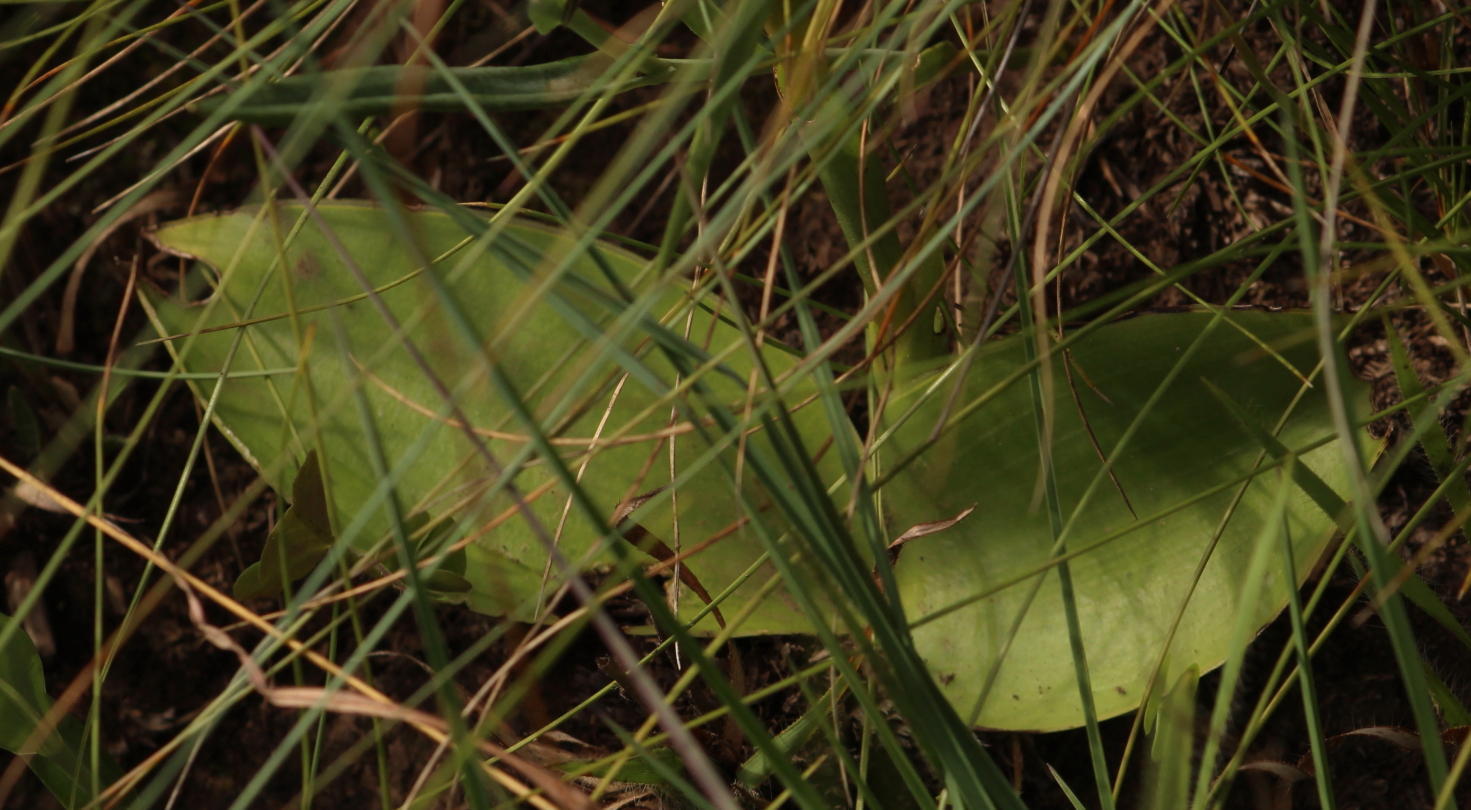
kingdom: Plantae
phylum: Tracheophyta
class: Liliopsida
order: Asparagales
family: Orchidaceae
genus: Satyrium
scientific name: Satyrium longicauda
